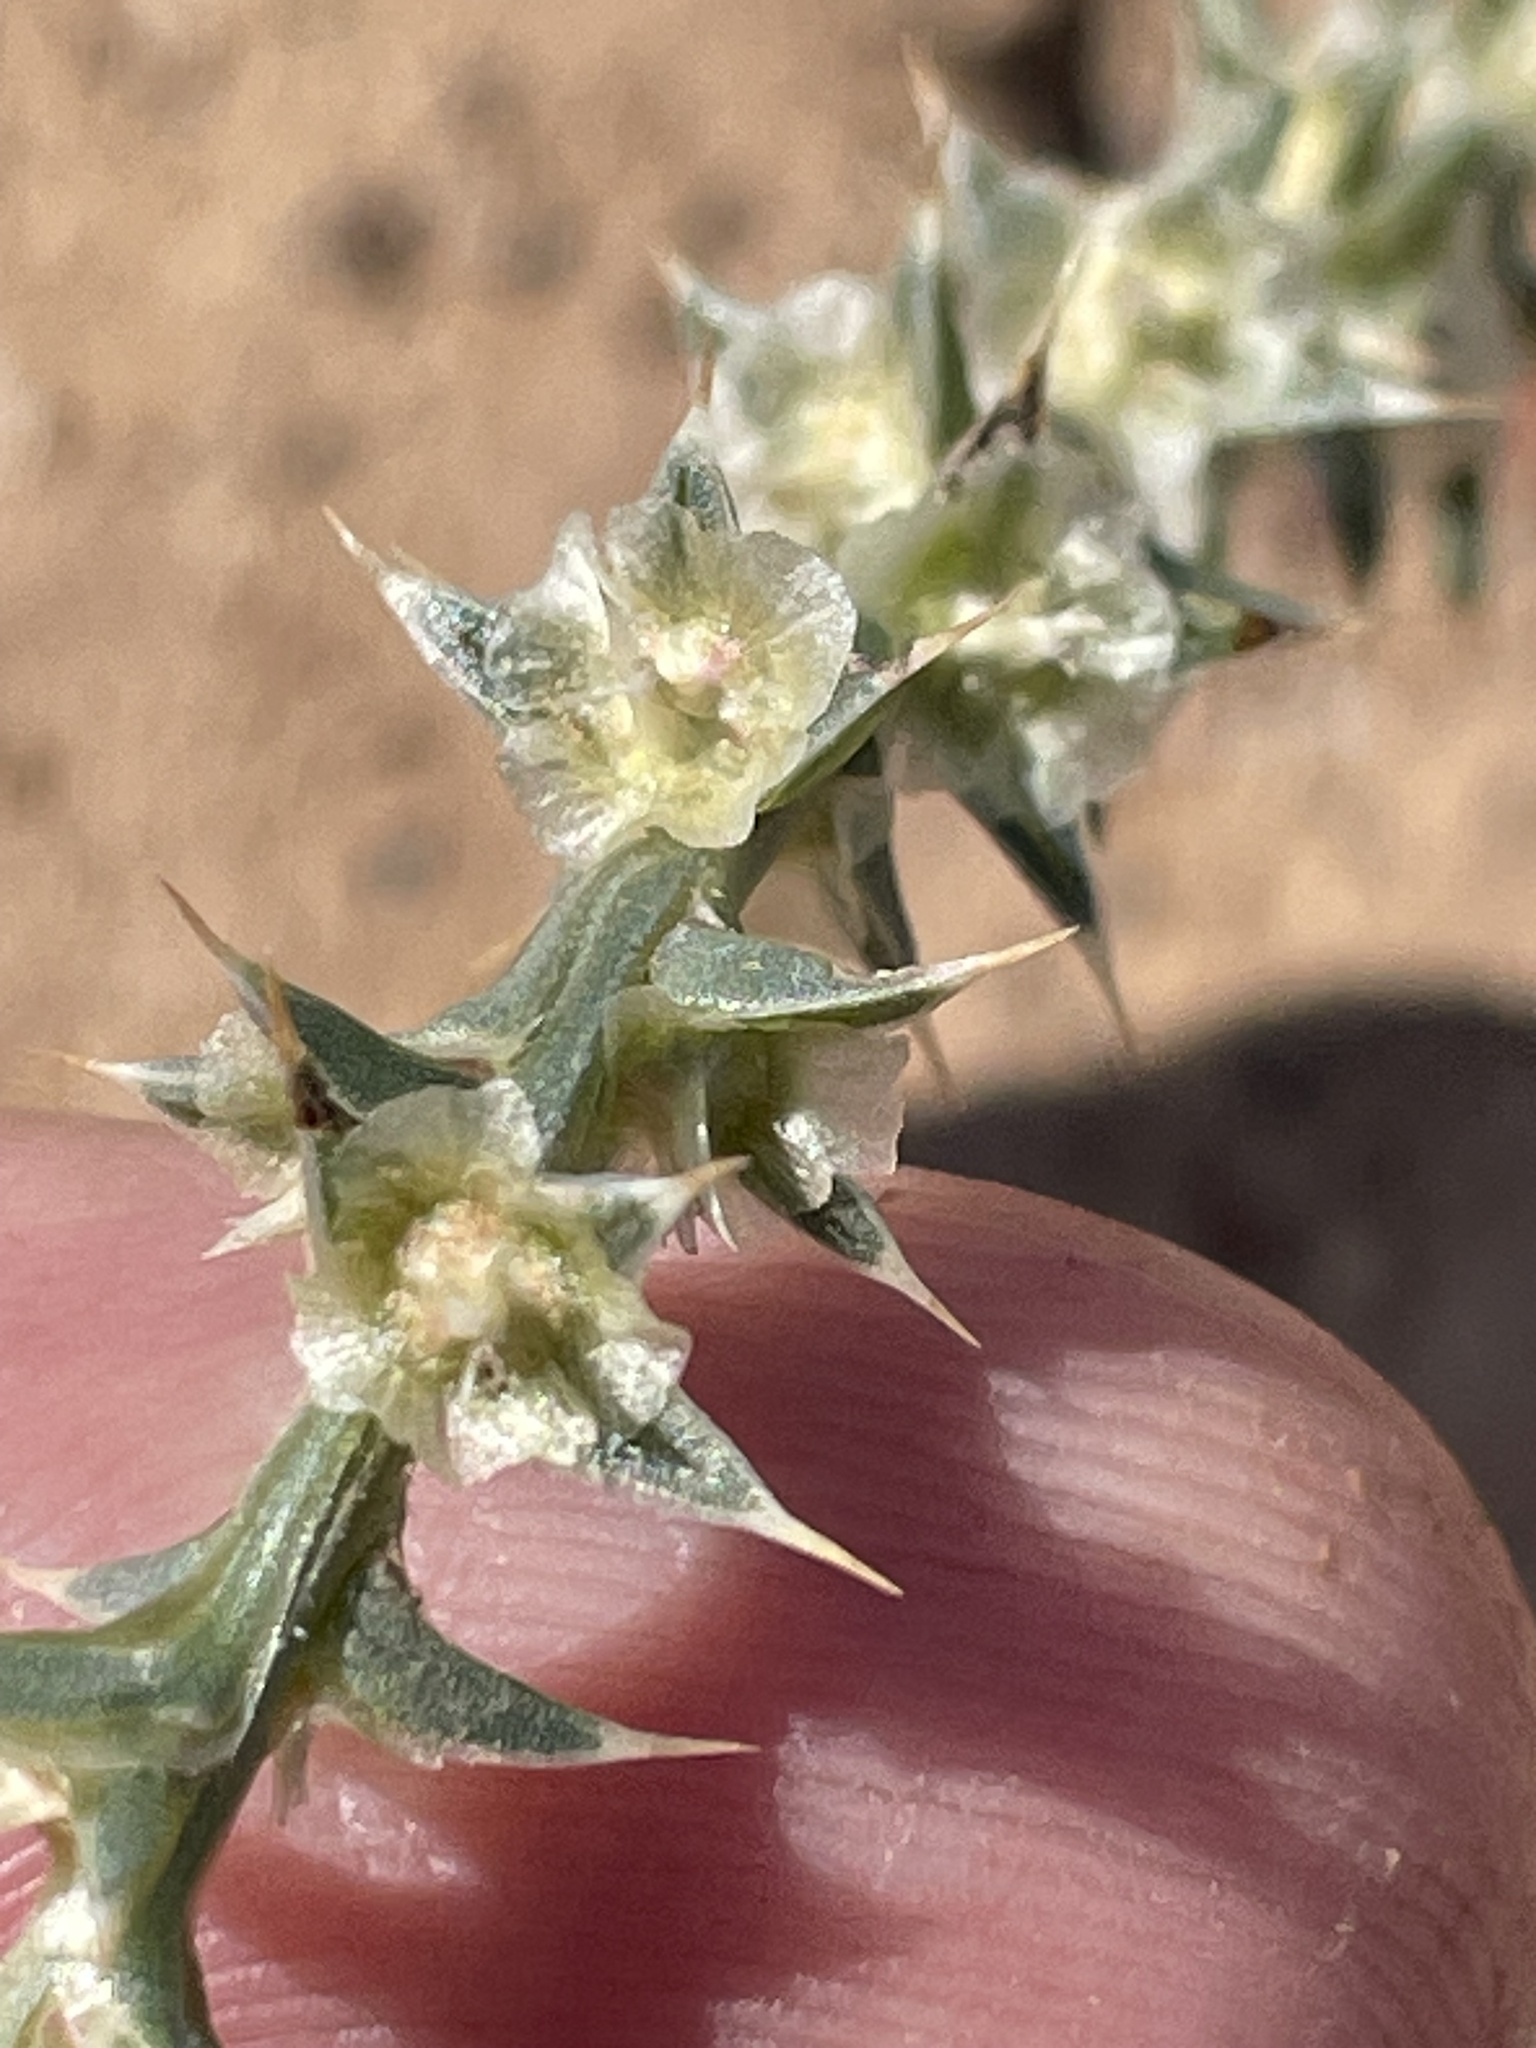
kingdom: Plantae
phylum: Tracheophyta
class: Magnoliopsida
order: Caryophyllales
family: Amaranthaceae
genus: Salsola
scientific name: Salsola tragus
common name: Prickly russian thistle
